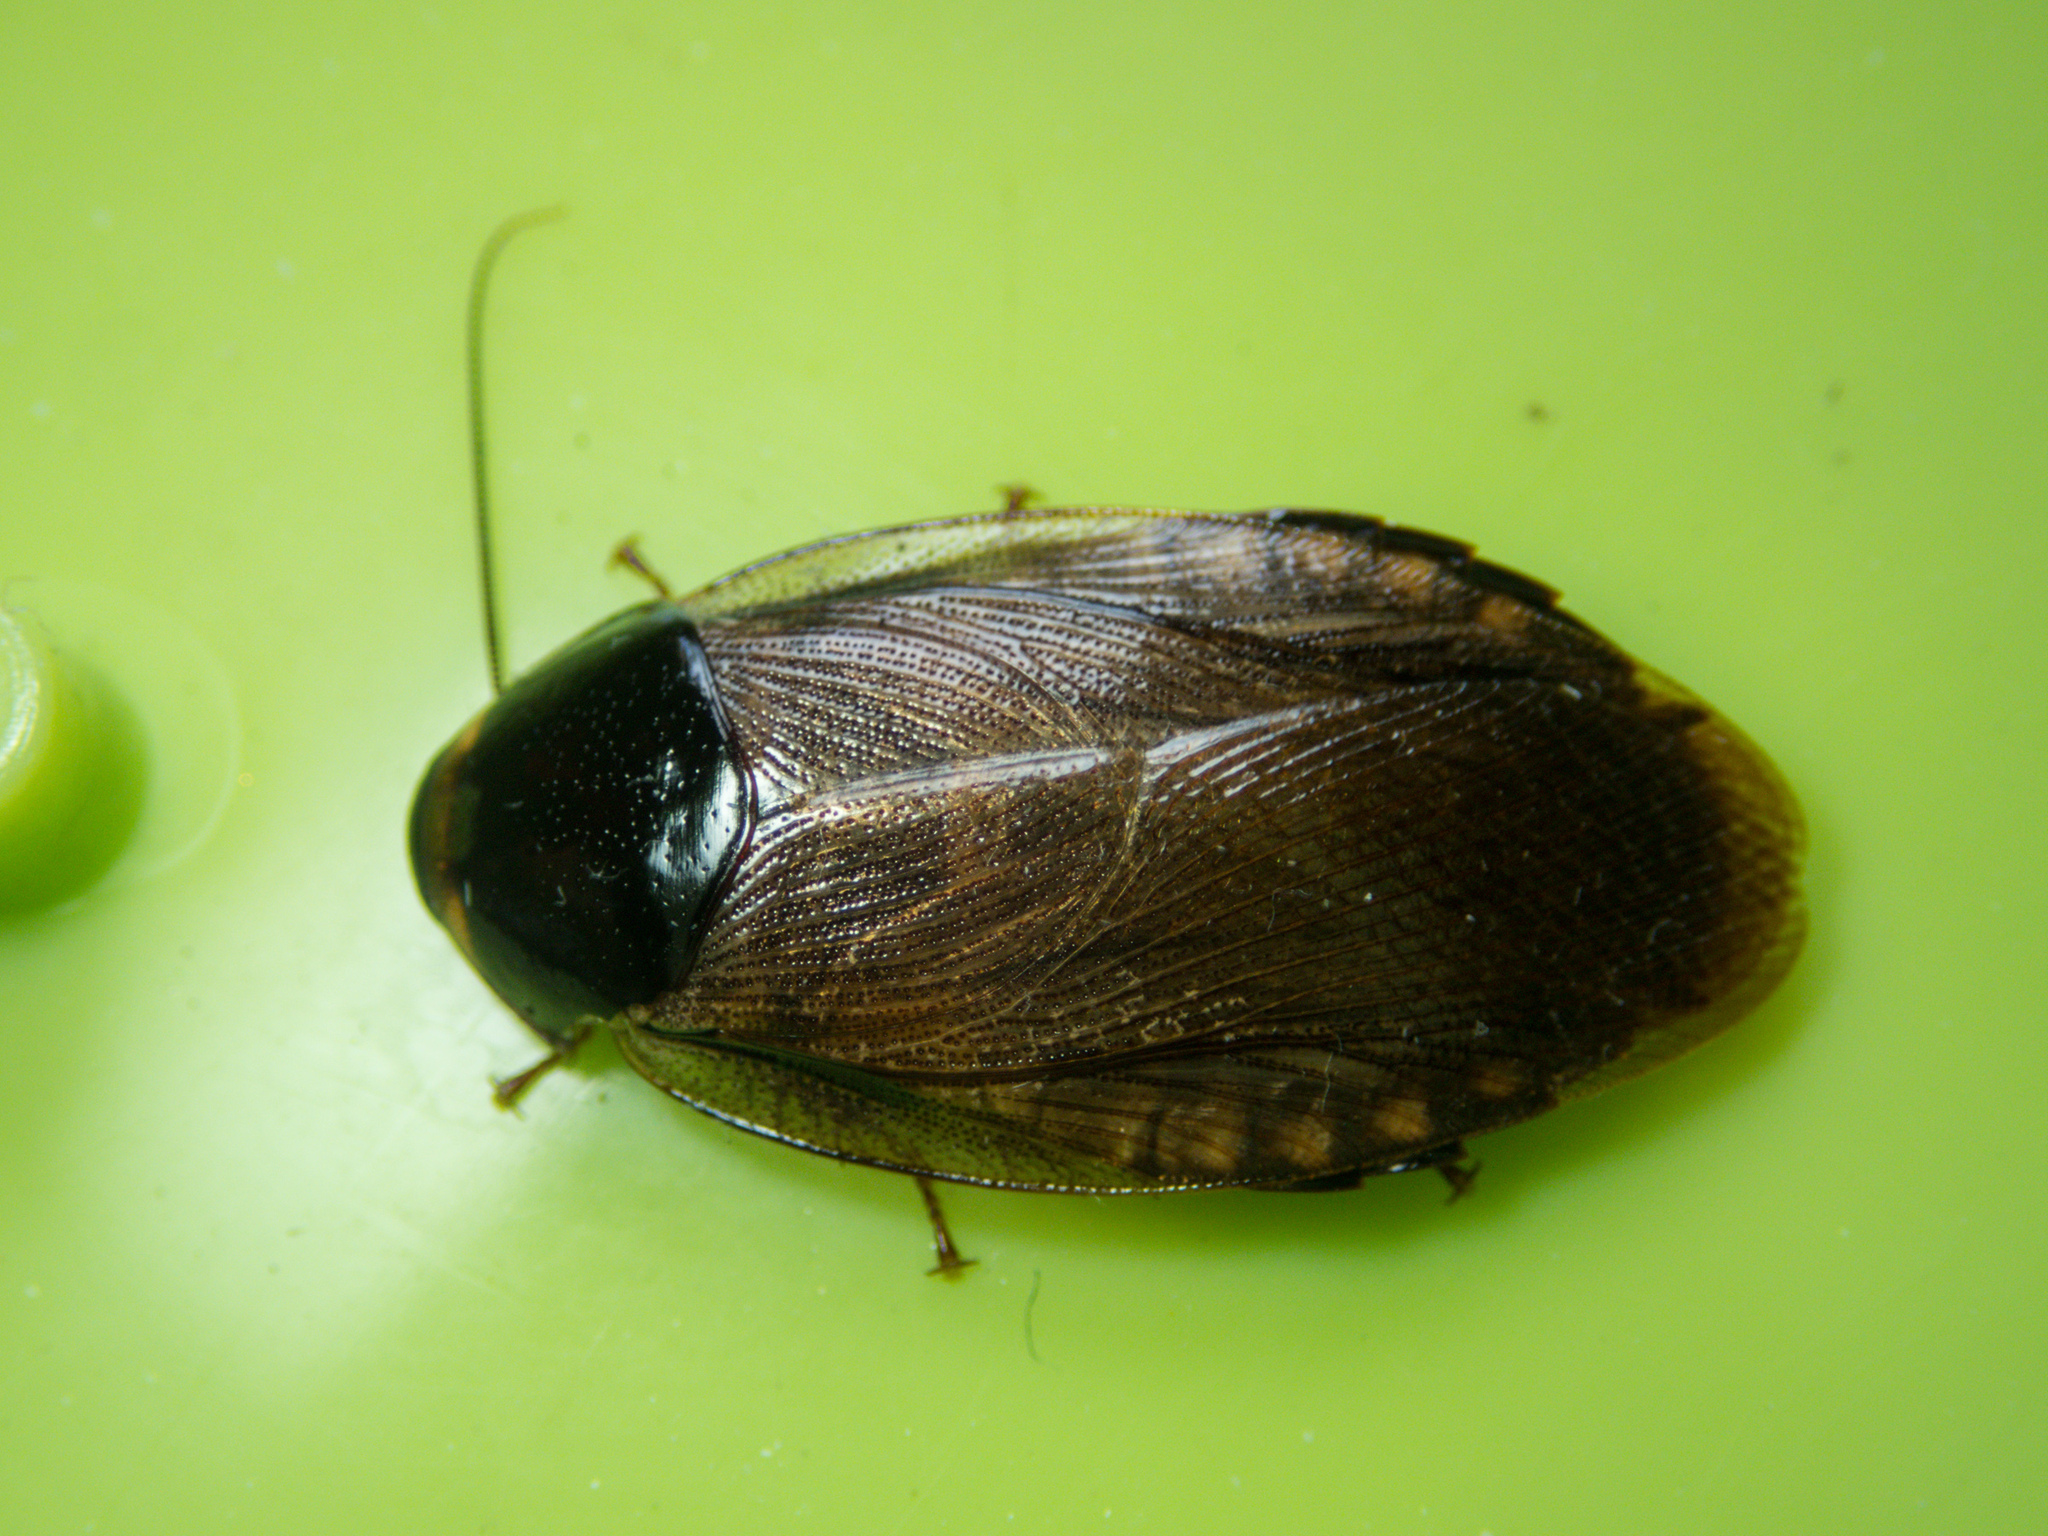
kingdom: Animalia
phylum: Arthropoda
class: Insecta
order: Blattodea
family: Blaberidae
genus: Pycnoscelus
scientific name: Pycnoscelus indicus
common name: Burrowing cockroach
